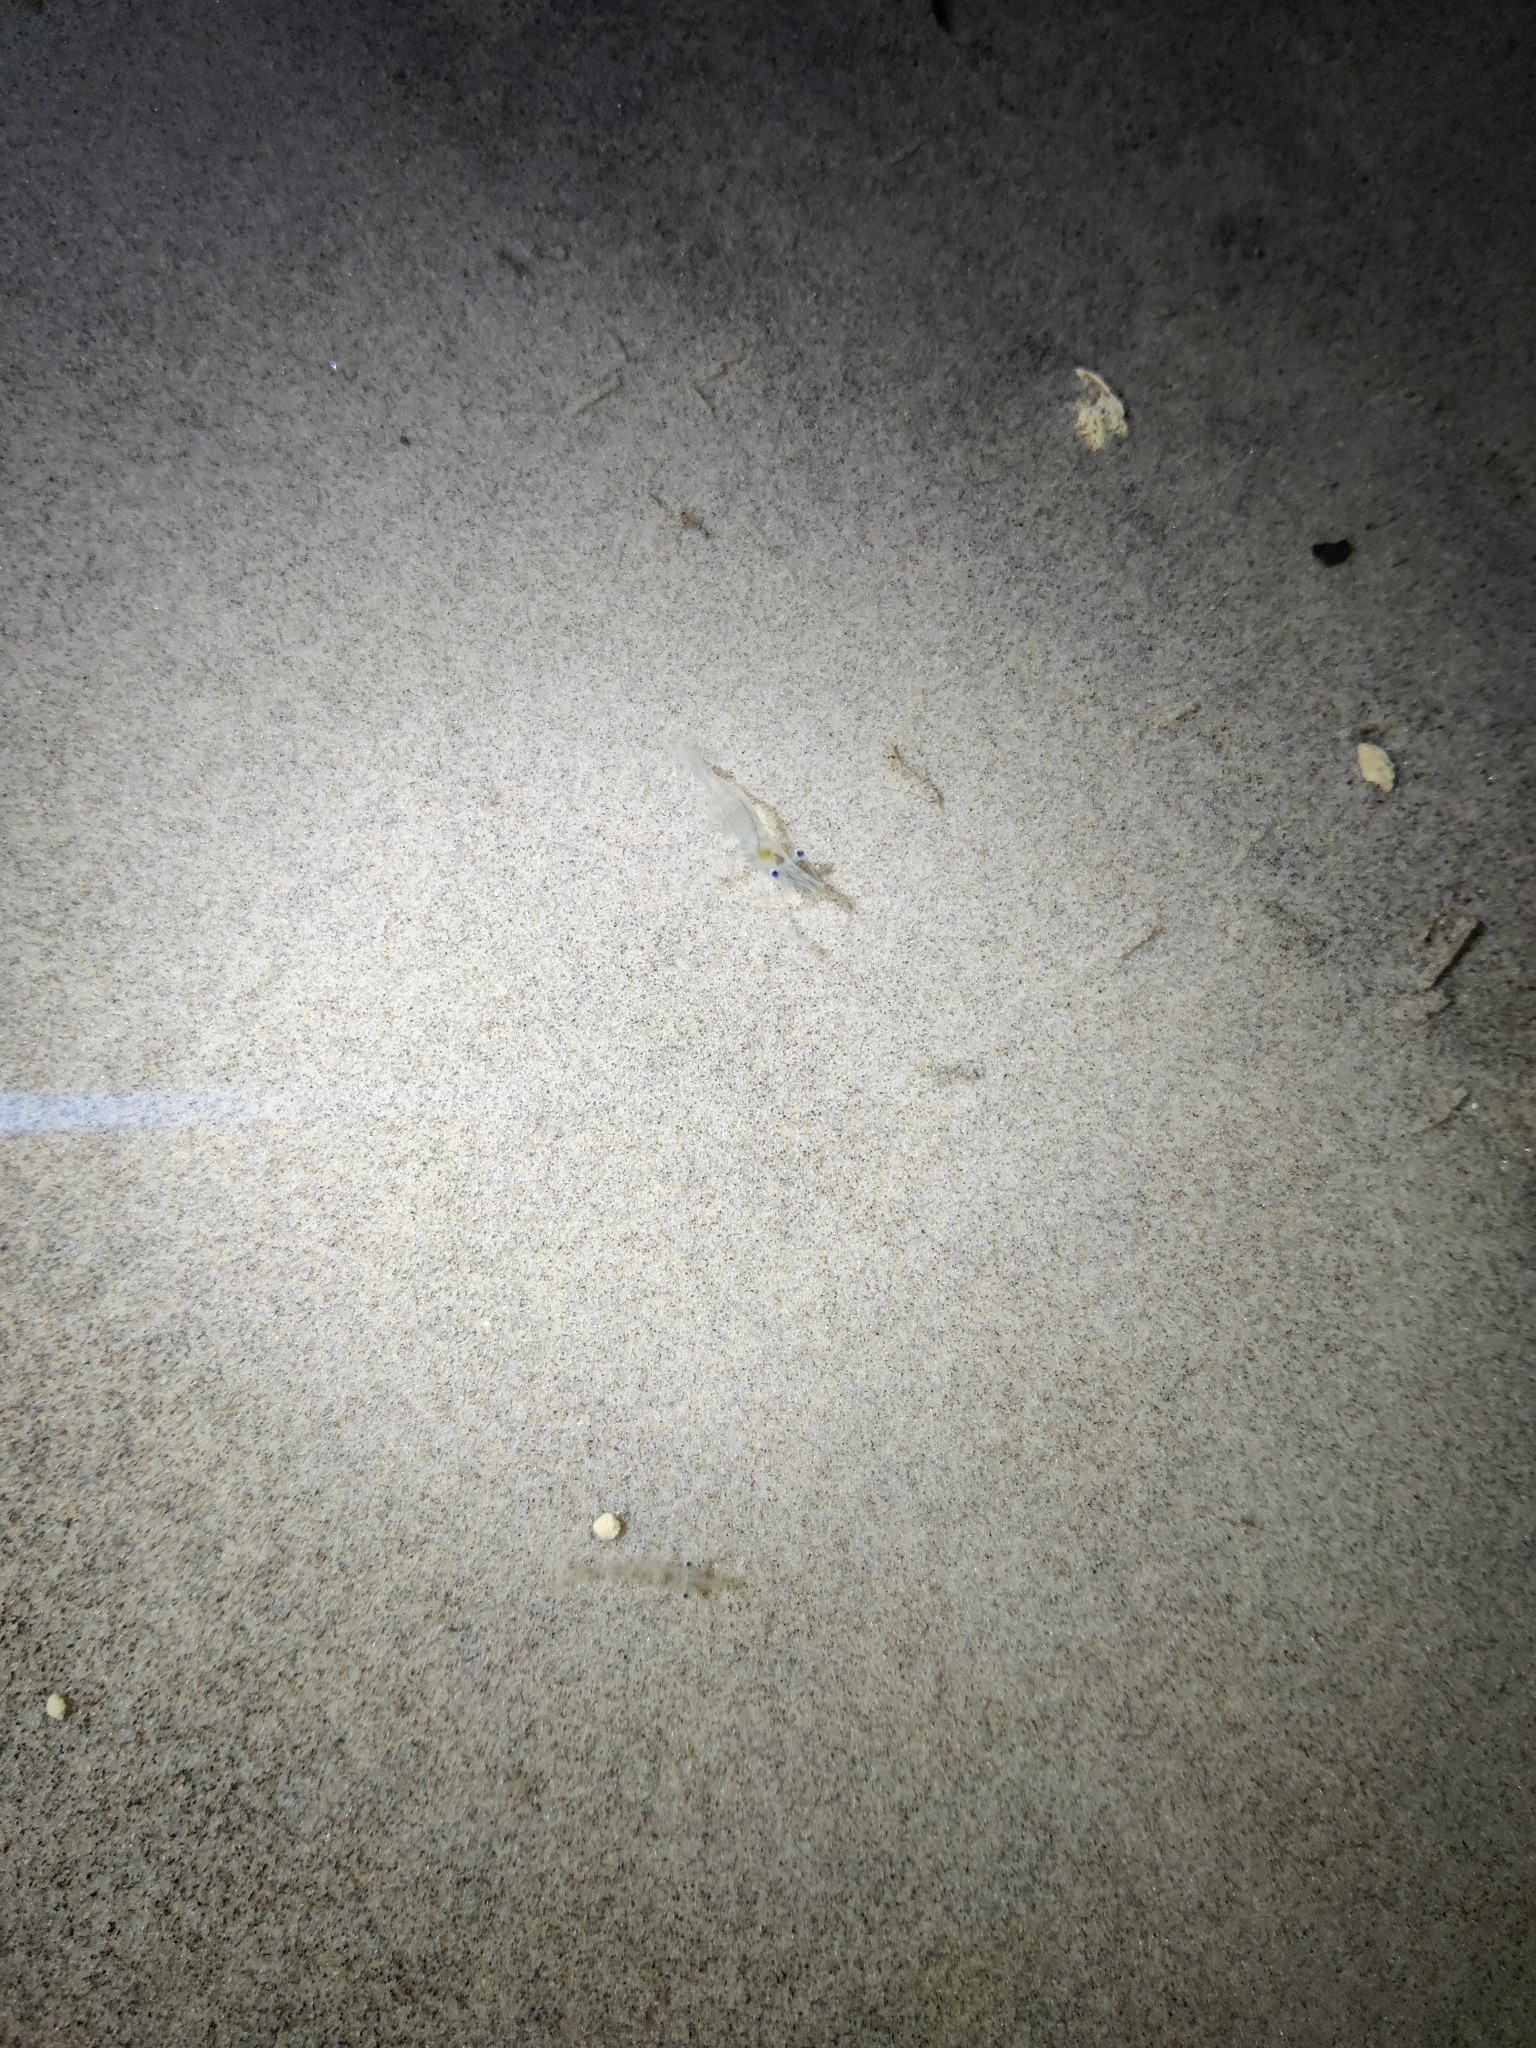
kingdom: Animalia
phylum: Arthropoda
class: Malacostraca
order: Decapoda
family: Palaemonidae
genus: Palaemon
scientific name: Palaemon
